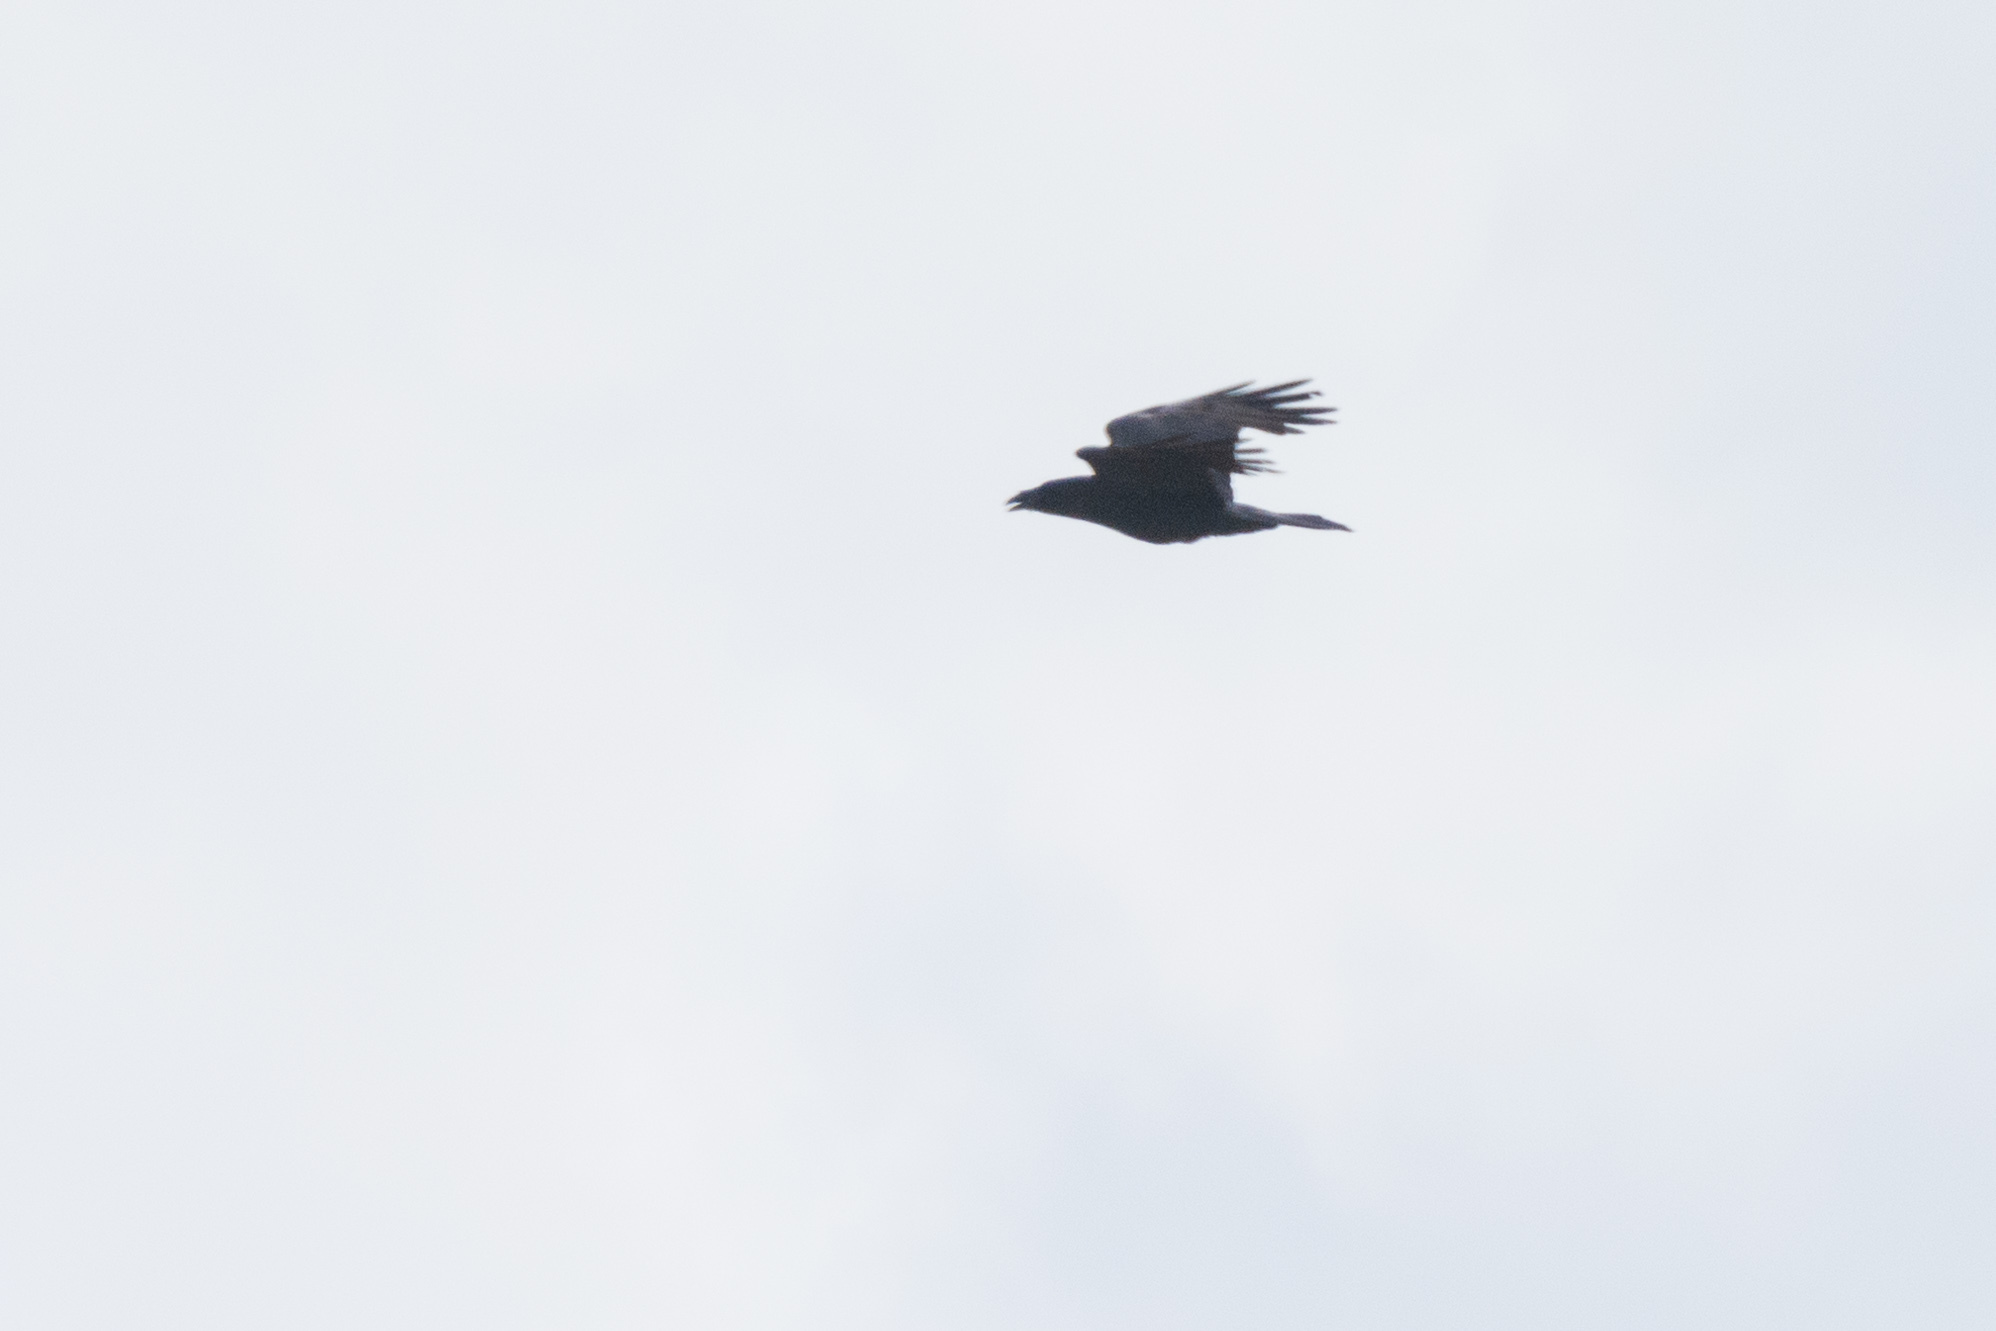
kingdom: Animalia
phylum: Chordata
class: Aves
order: Passeriformes
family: Corvidae
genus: Corvus
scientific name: Corvus corax
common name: Common raven
